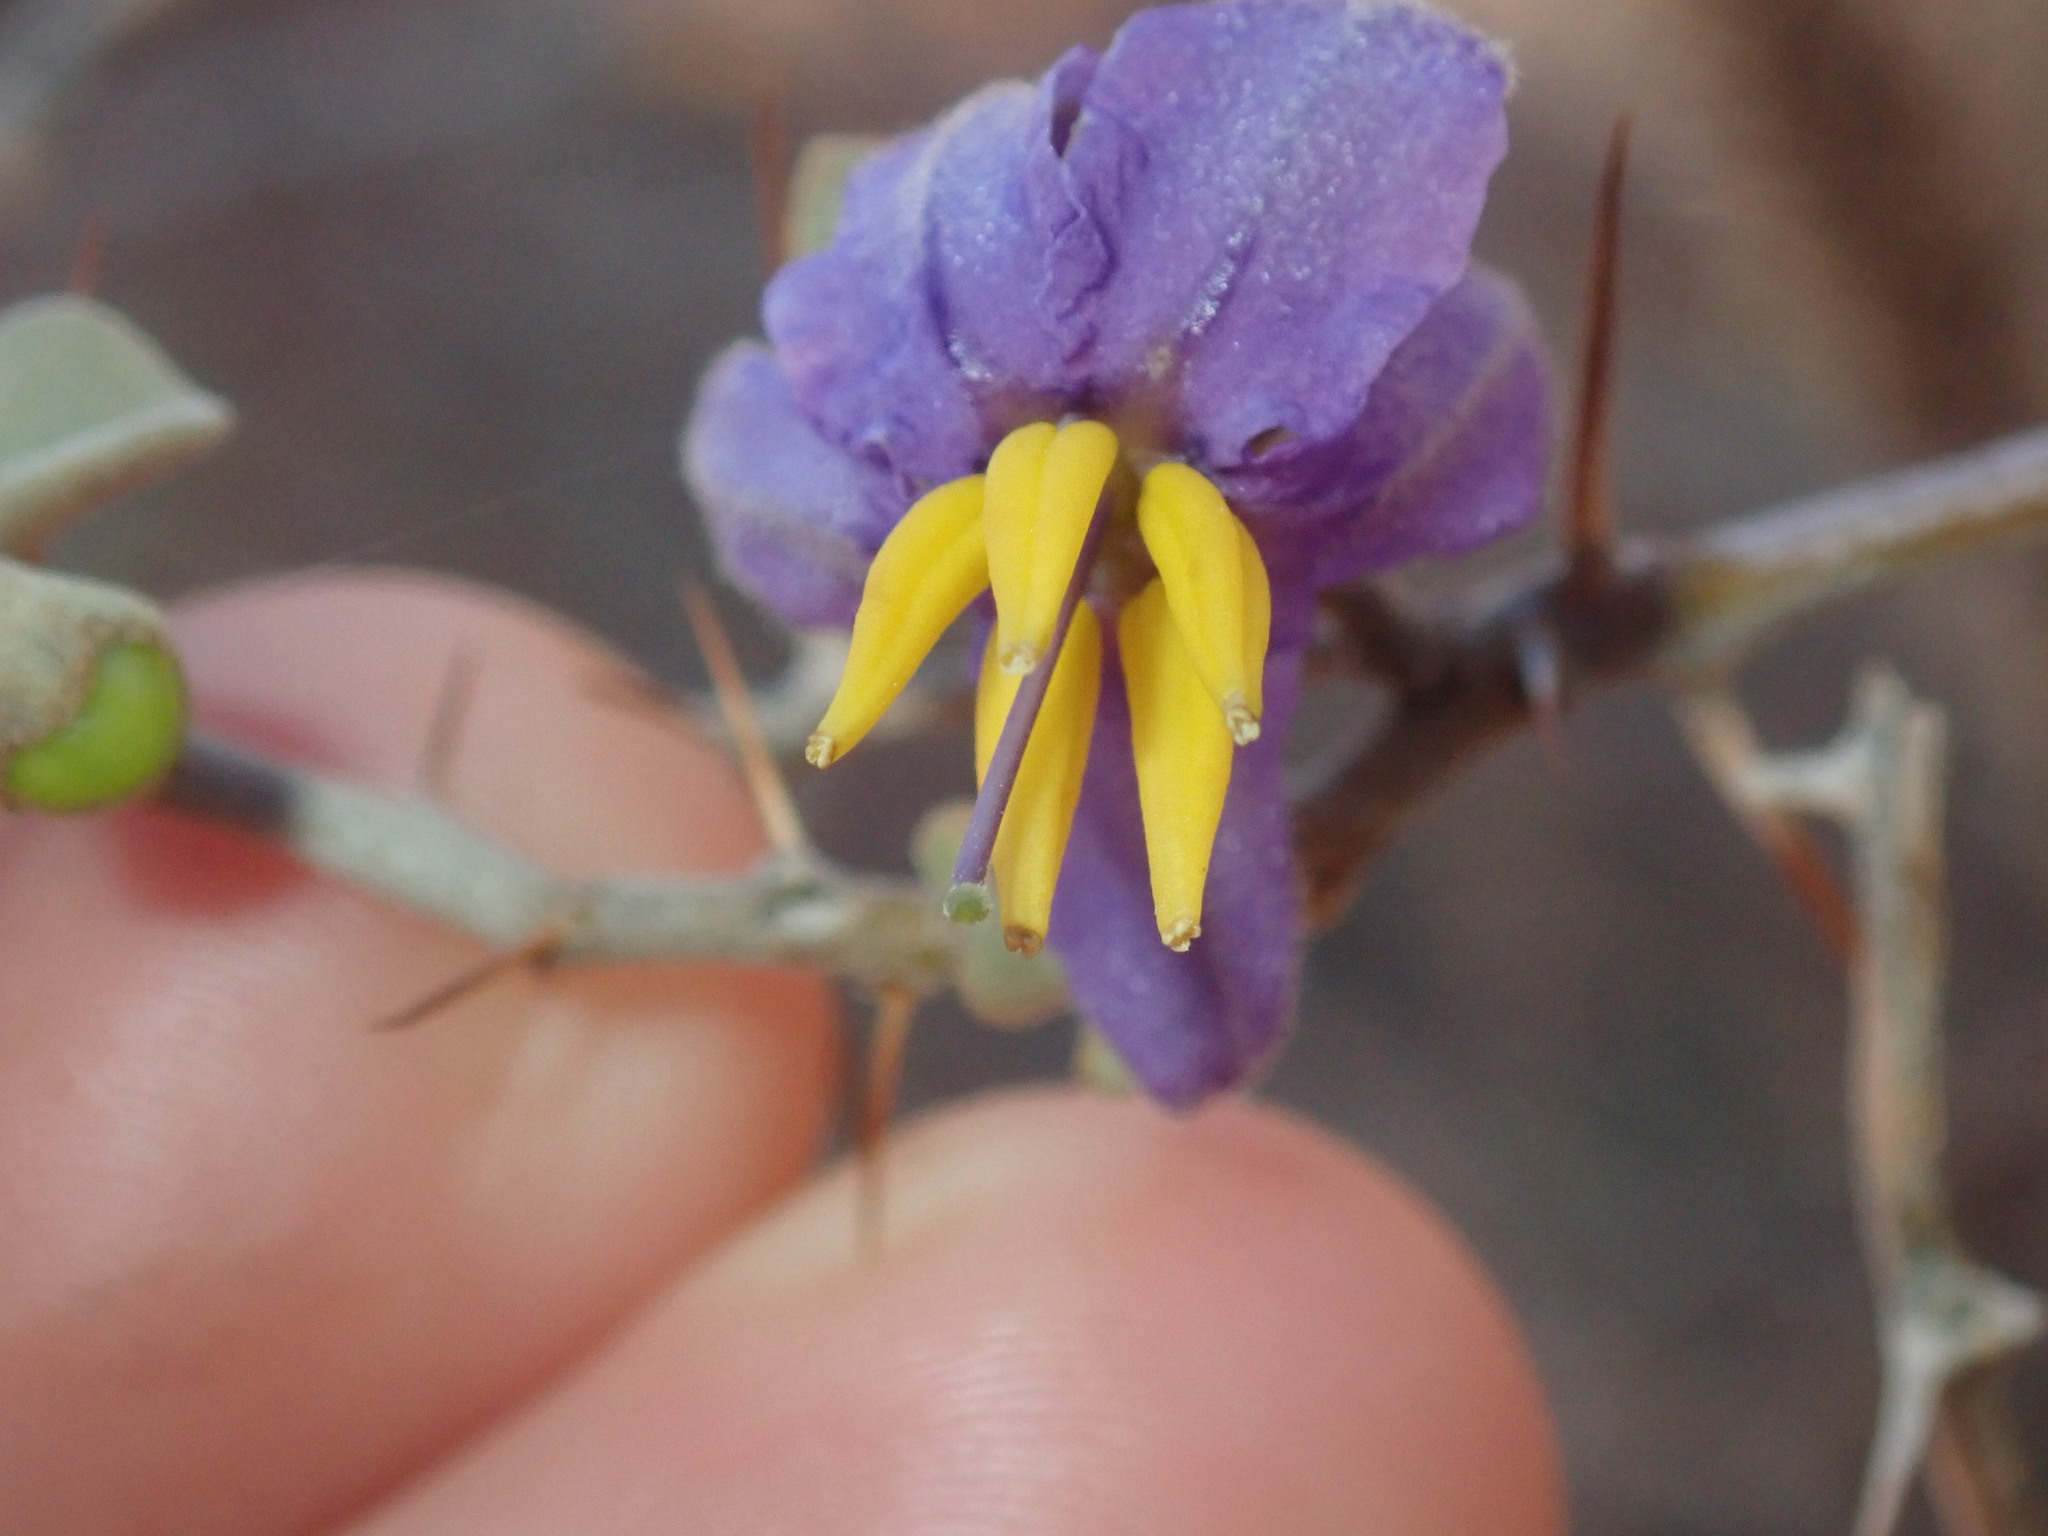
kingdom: Plantae
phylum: Tracheophyta
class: Magnoliopsida
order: Solanales
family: Solanaceae
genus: Solanum
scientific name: Solanum orbiculatum
